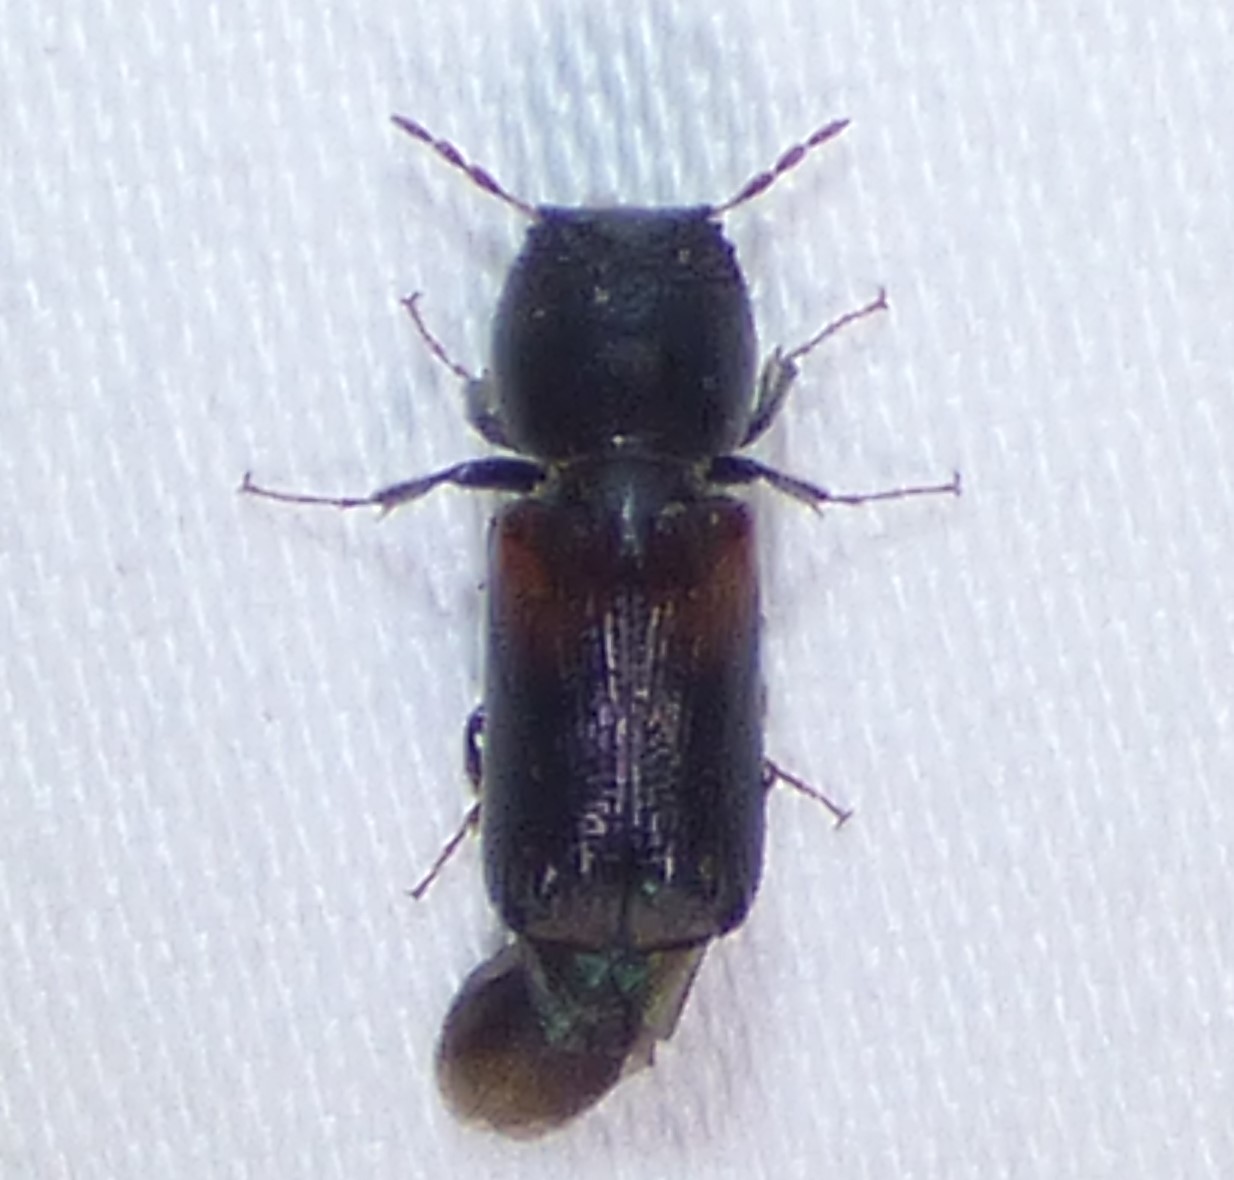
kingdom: Animalia
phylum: Arthropoda
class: Insecta
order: Coleoptera
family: Bostrichidae
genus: Xylobiops
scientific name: Xylobiops basilaris
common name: Red-shouldered bostrichid
